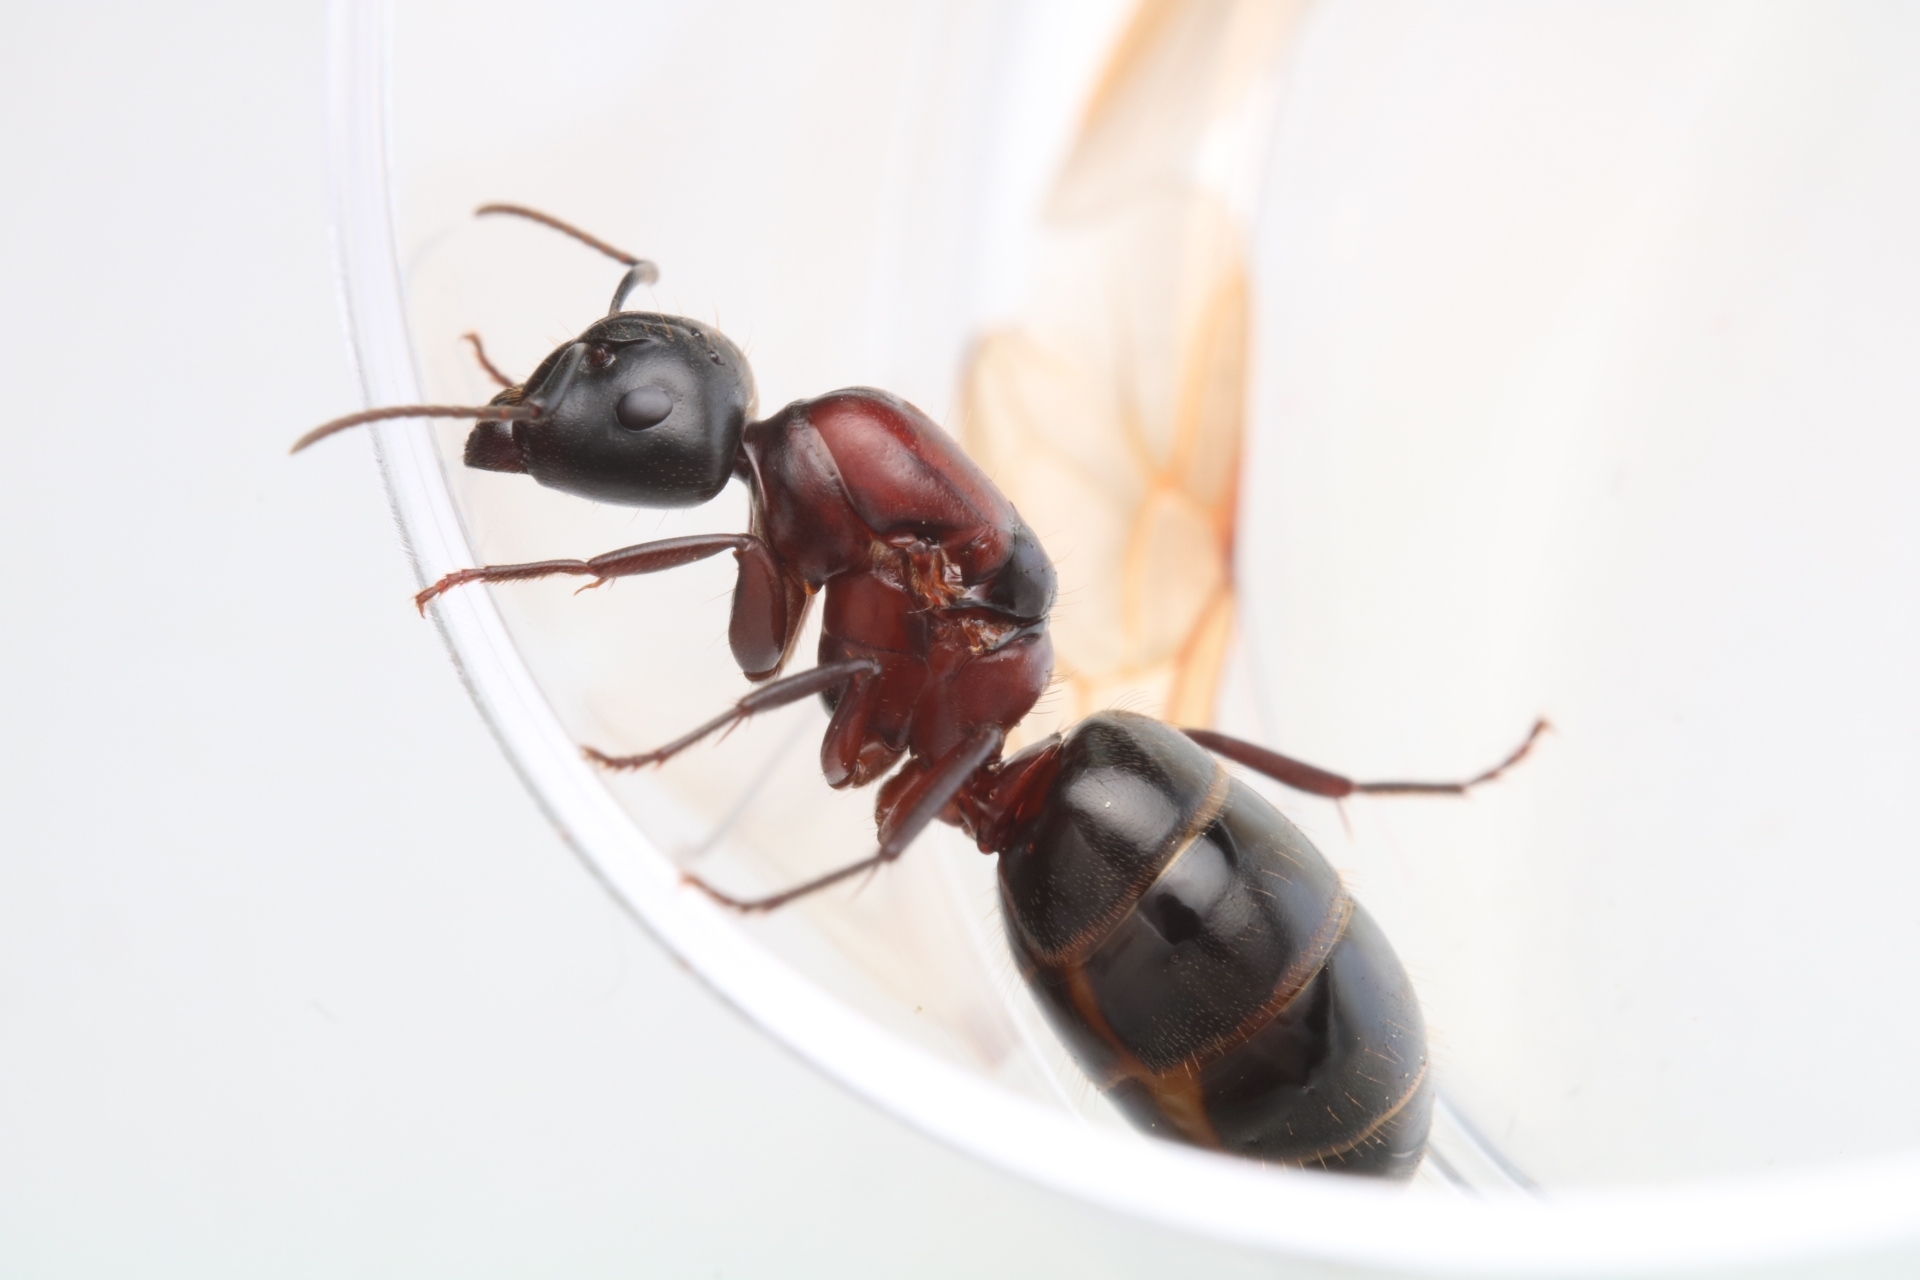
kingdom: Animalia
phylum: Arthropoda
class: Insecta
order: Hymenoptera
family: Formicidae
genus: Camponotus
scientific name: Camponotus novaeboracensis
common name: New york carpenter ant
